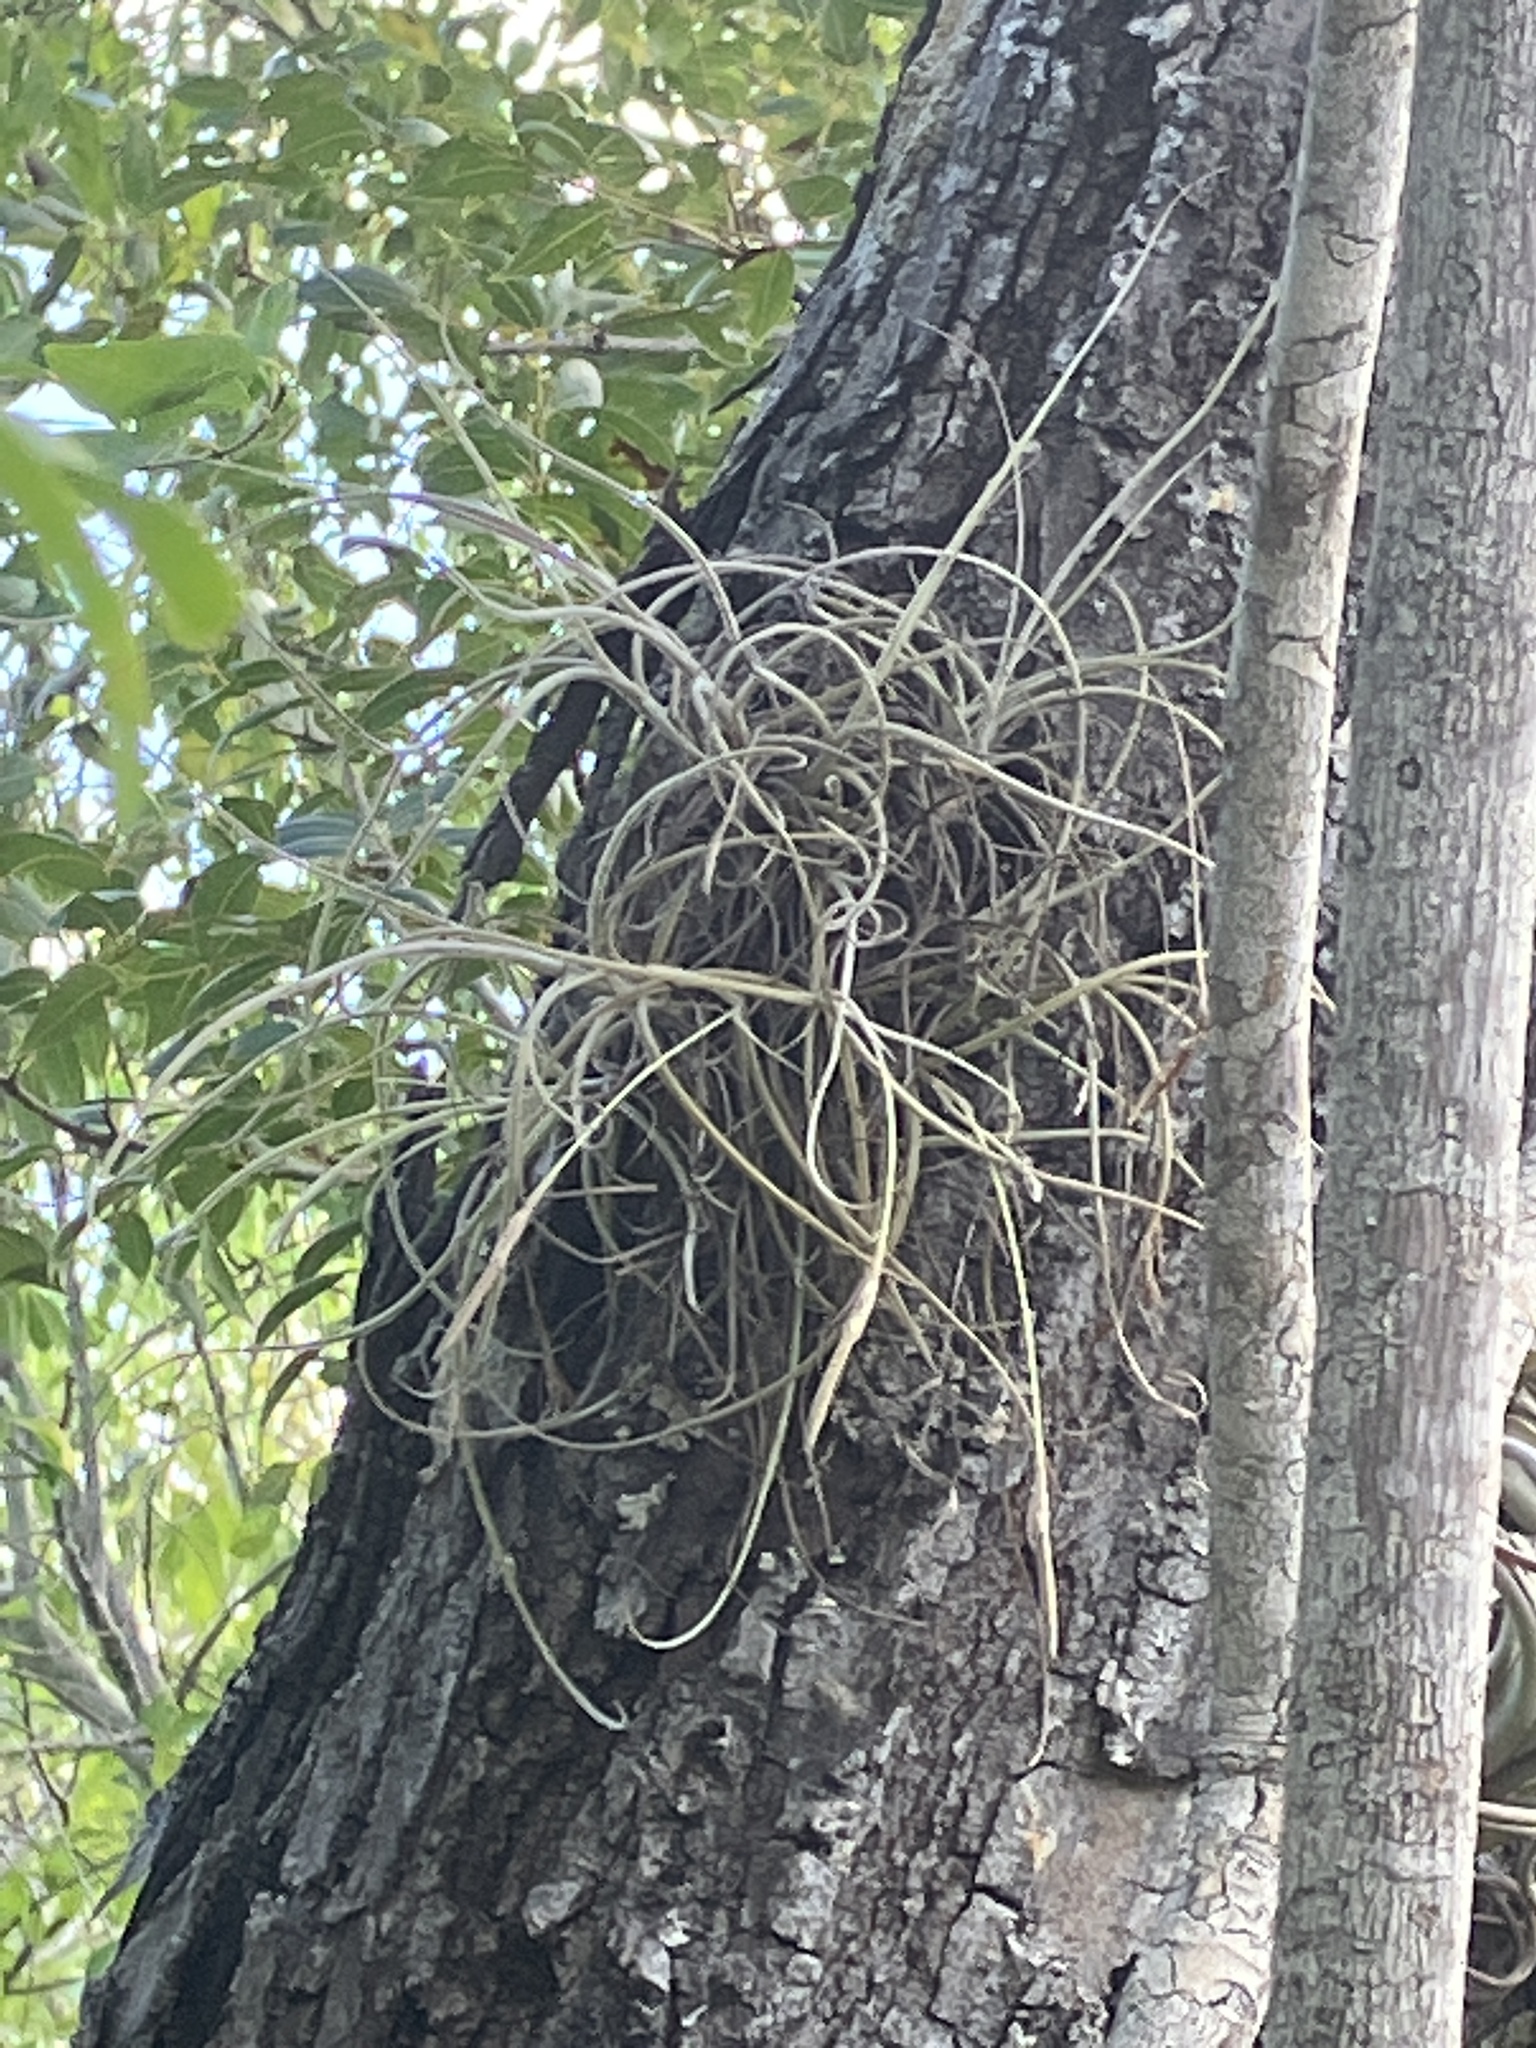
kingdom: Plantae
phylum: Tracheophyta
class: Liliopsida
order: Poales
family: Bromeliaceae
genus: Tillandsia
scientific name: Tillandsia recurvata
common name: Small ballmoss
